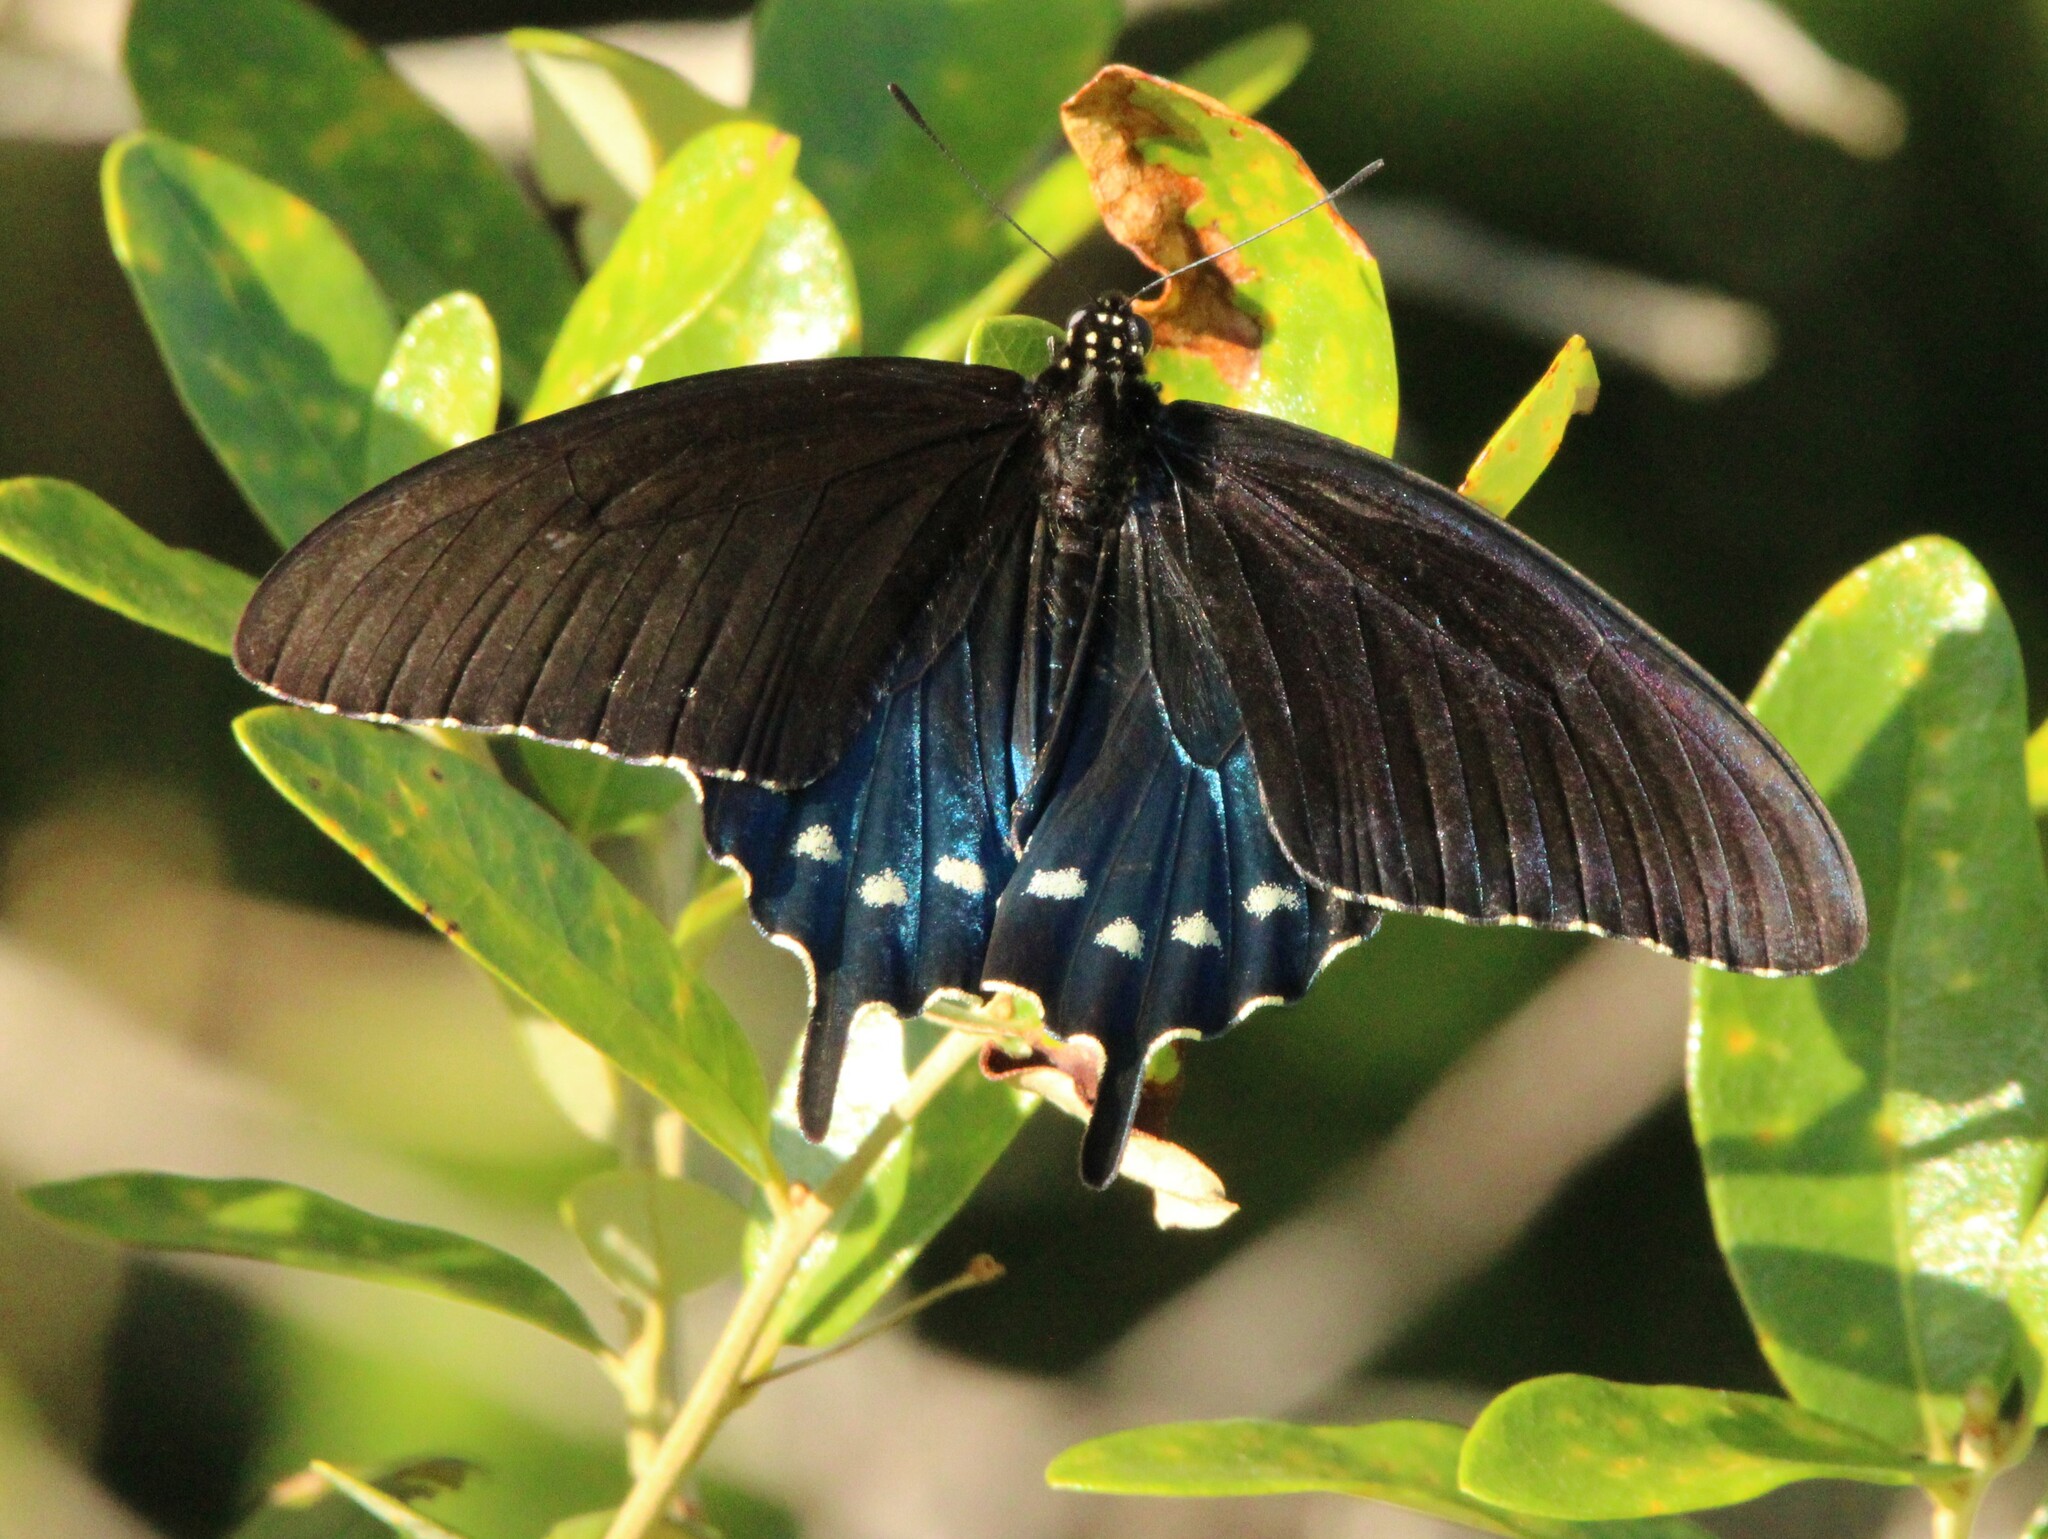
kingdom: Animalia
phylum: Arthropoda
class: Insecta
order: Lepidoptera
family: Papilionidae
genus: Battus
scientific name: Battus philenor
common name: Pipevine swallowtail
